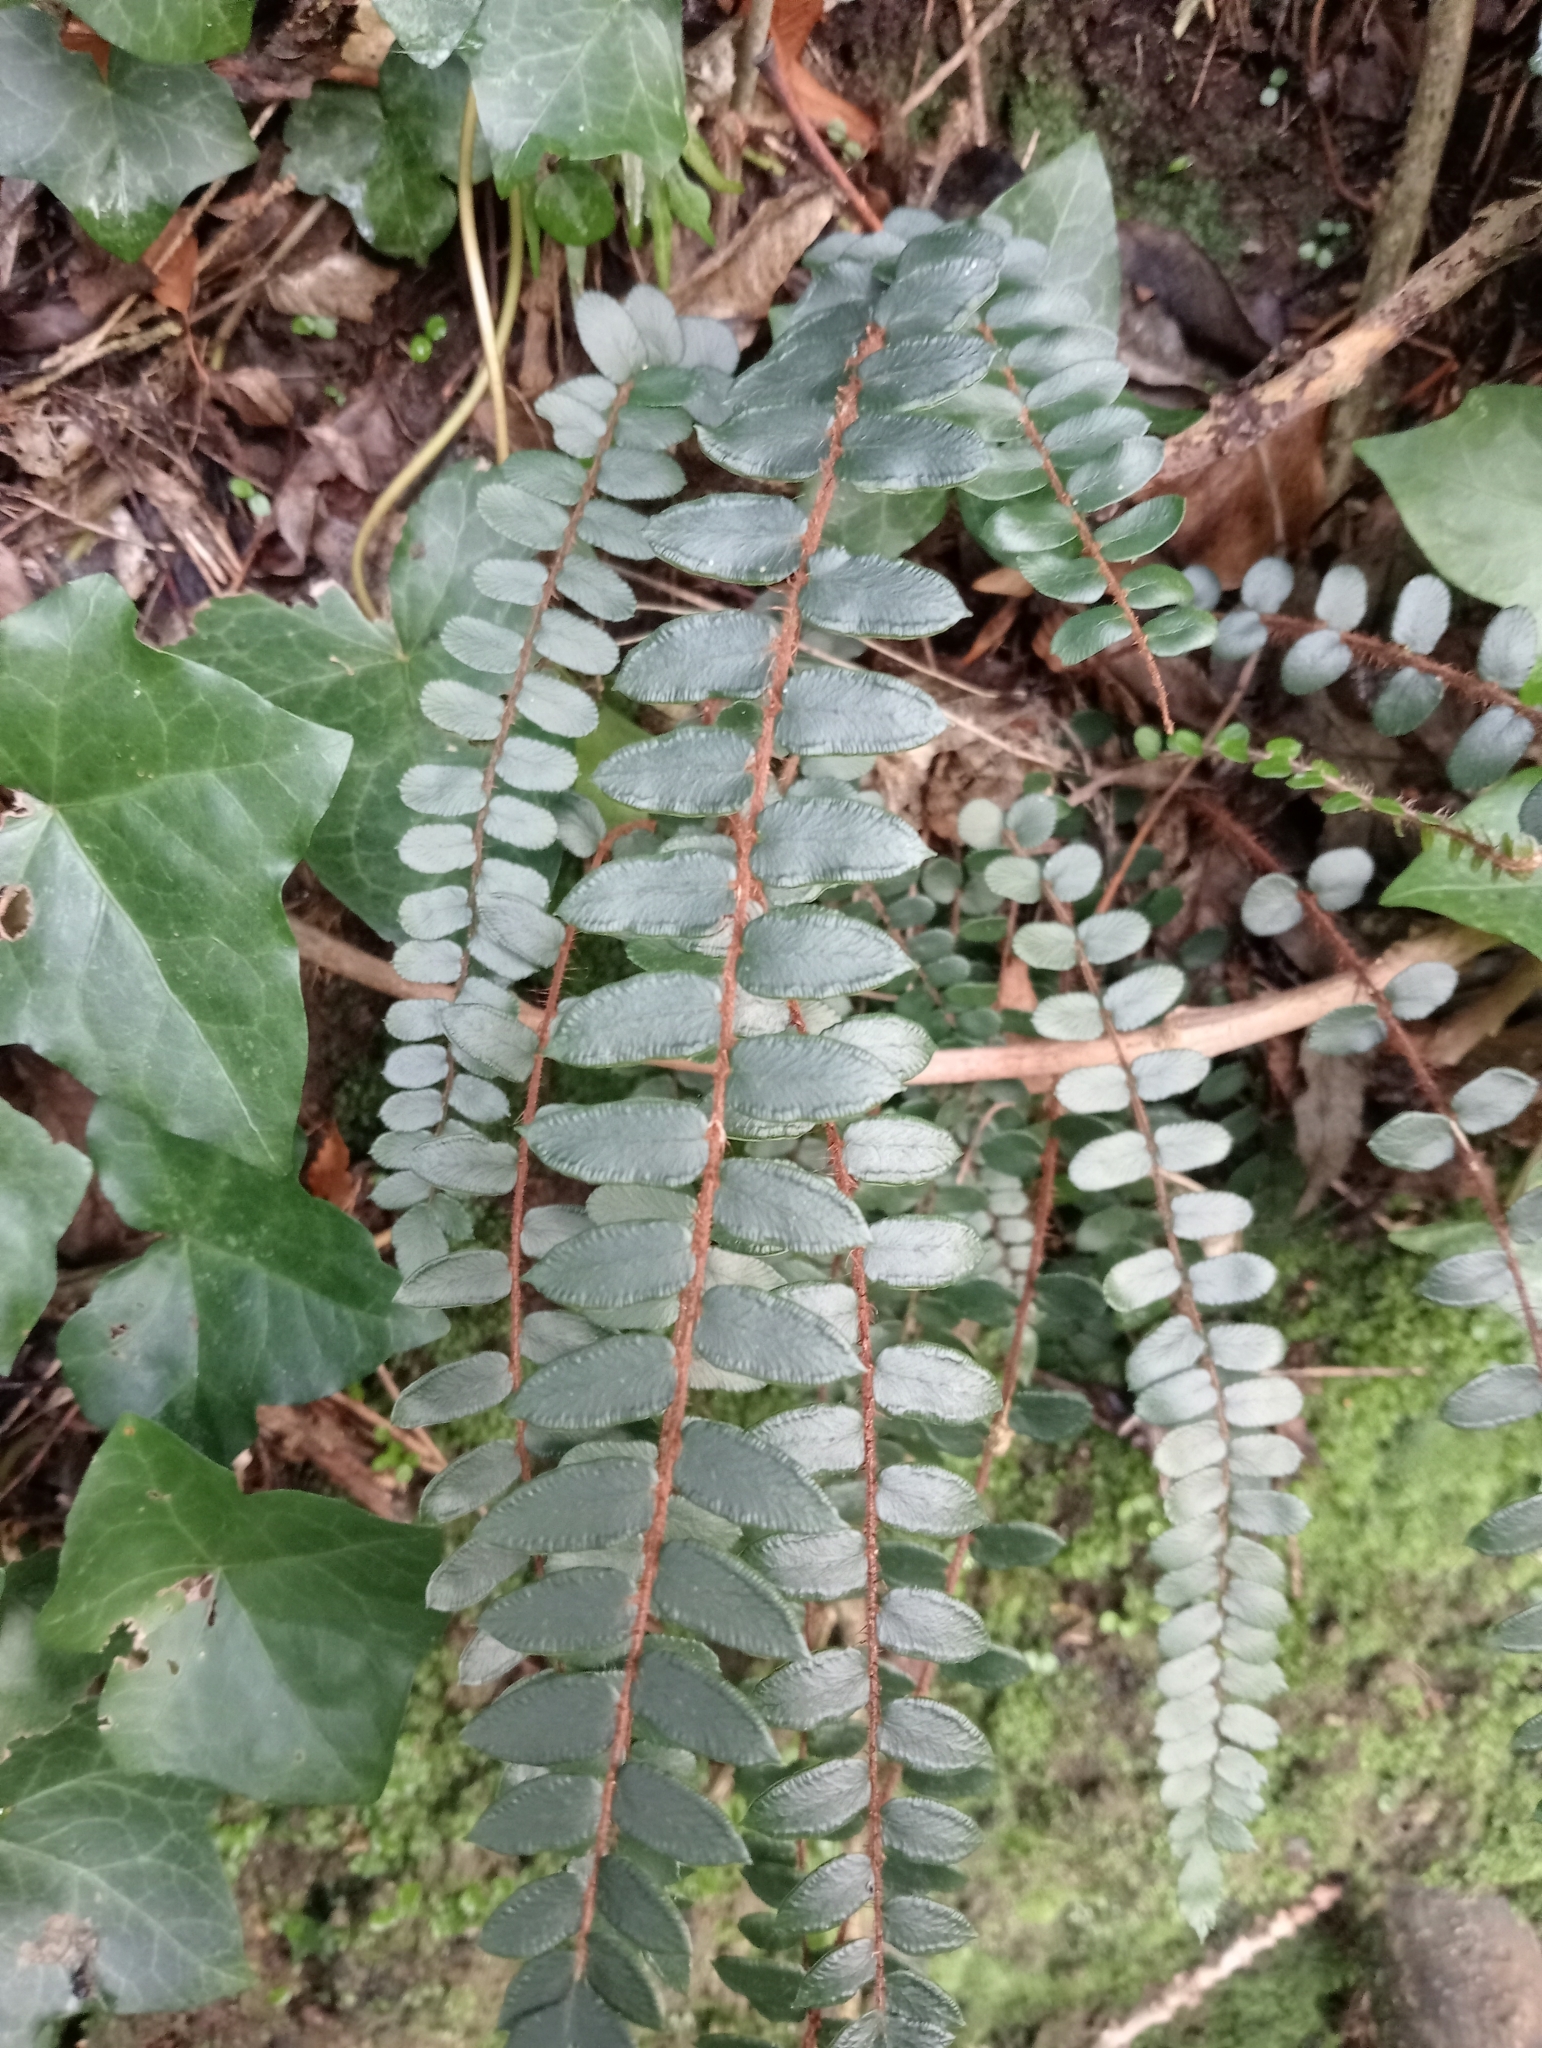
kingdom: Plantae
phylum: Tracheophyta
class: Polypodiopsida
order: Polypodiales
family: Pteridaceae
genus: Pellaea
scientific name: Pellaea rotundifolia
